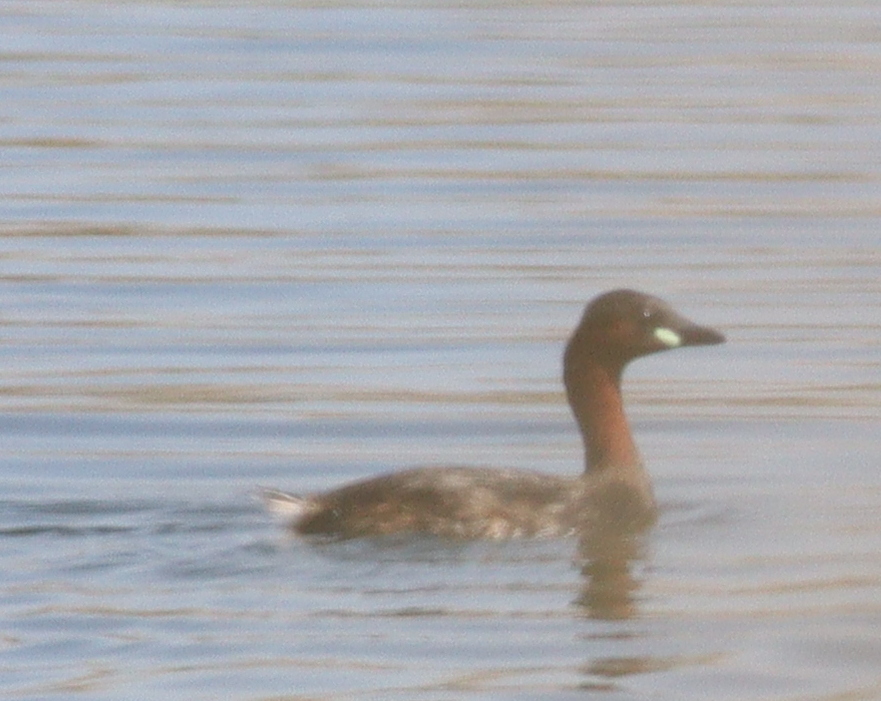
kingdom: Animalia
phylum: Chordata
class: Aves
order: Podicipediformes
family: Podicipedidae
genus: Tachybaptus
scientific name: Tachybaptus ruficollis
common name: Little grebe
